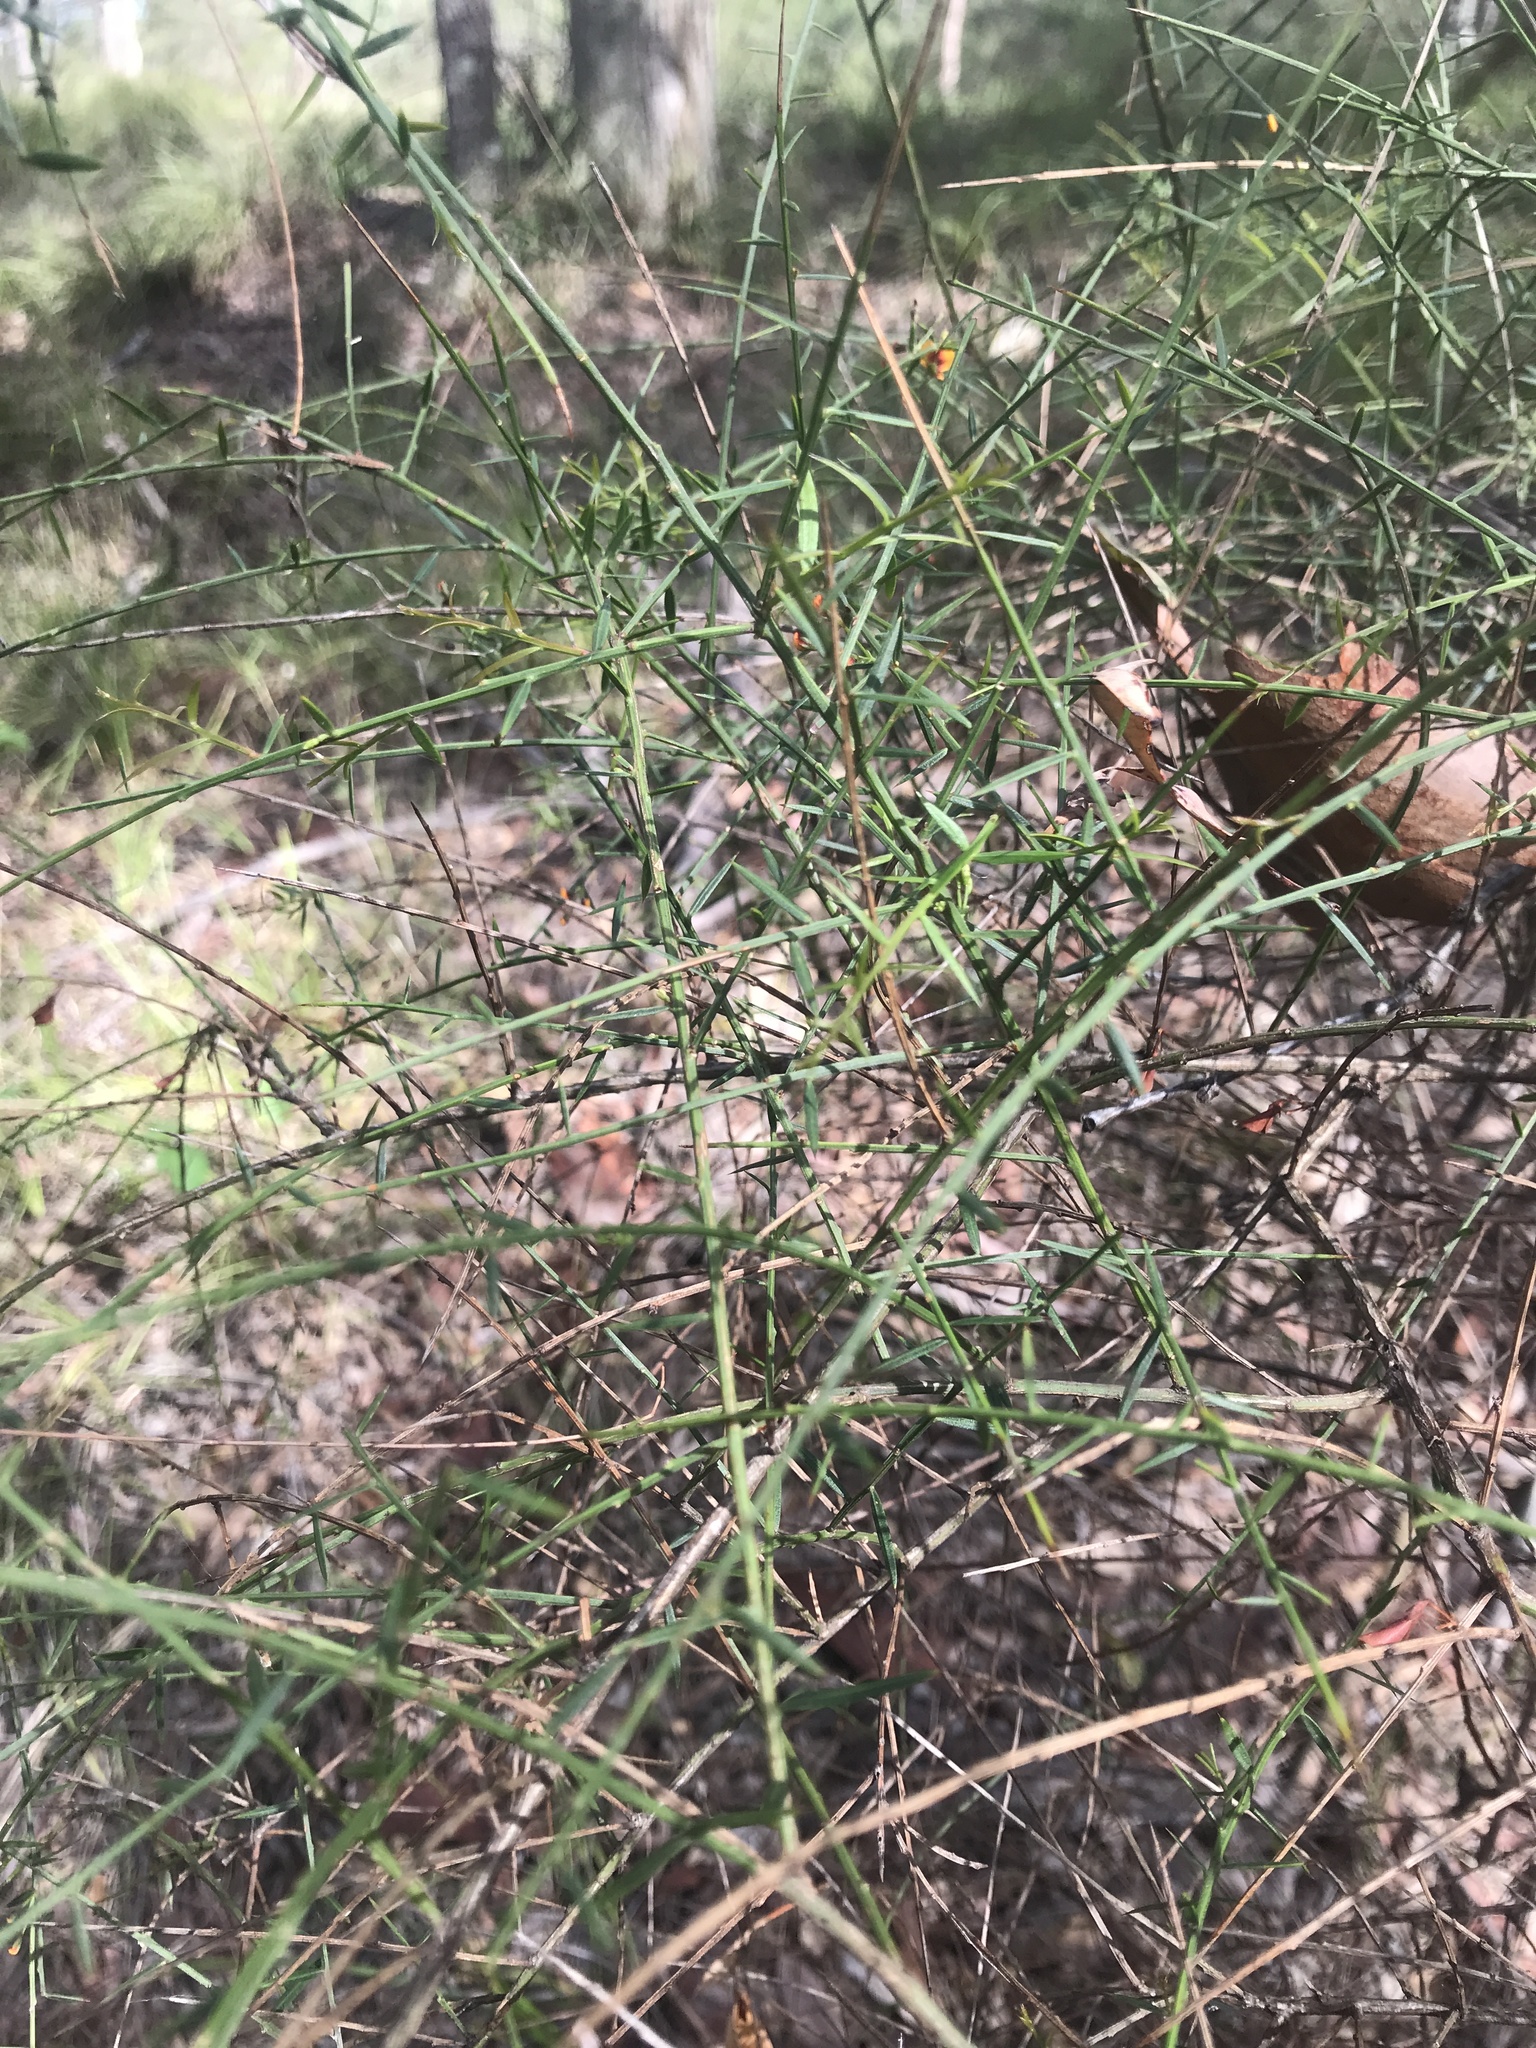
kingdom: Plantae
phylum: Tracheophyta
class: Magnoliopsida
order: Fabales
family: Fabaceae
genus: Daviesia
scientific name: Daviesia ulicifolia
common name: Gorse bitter-pea
